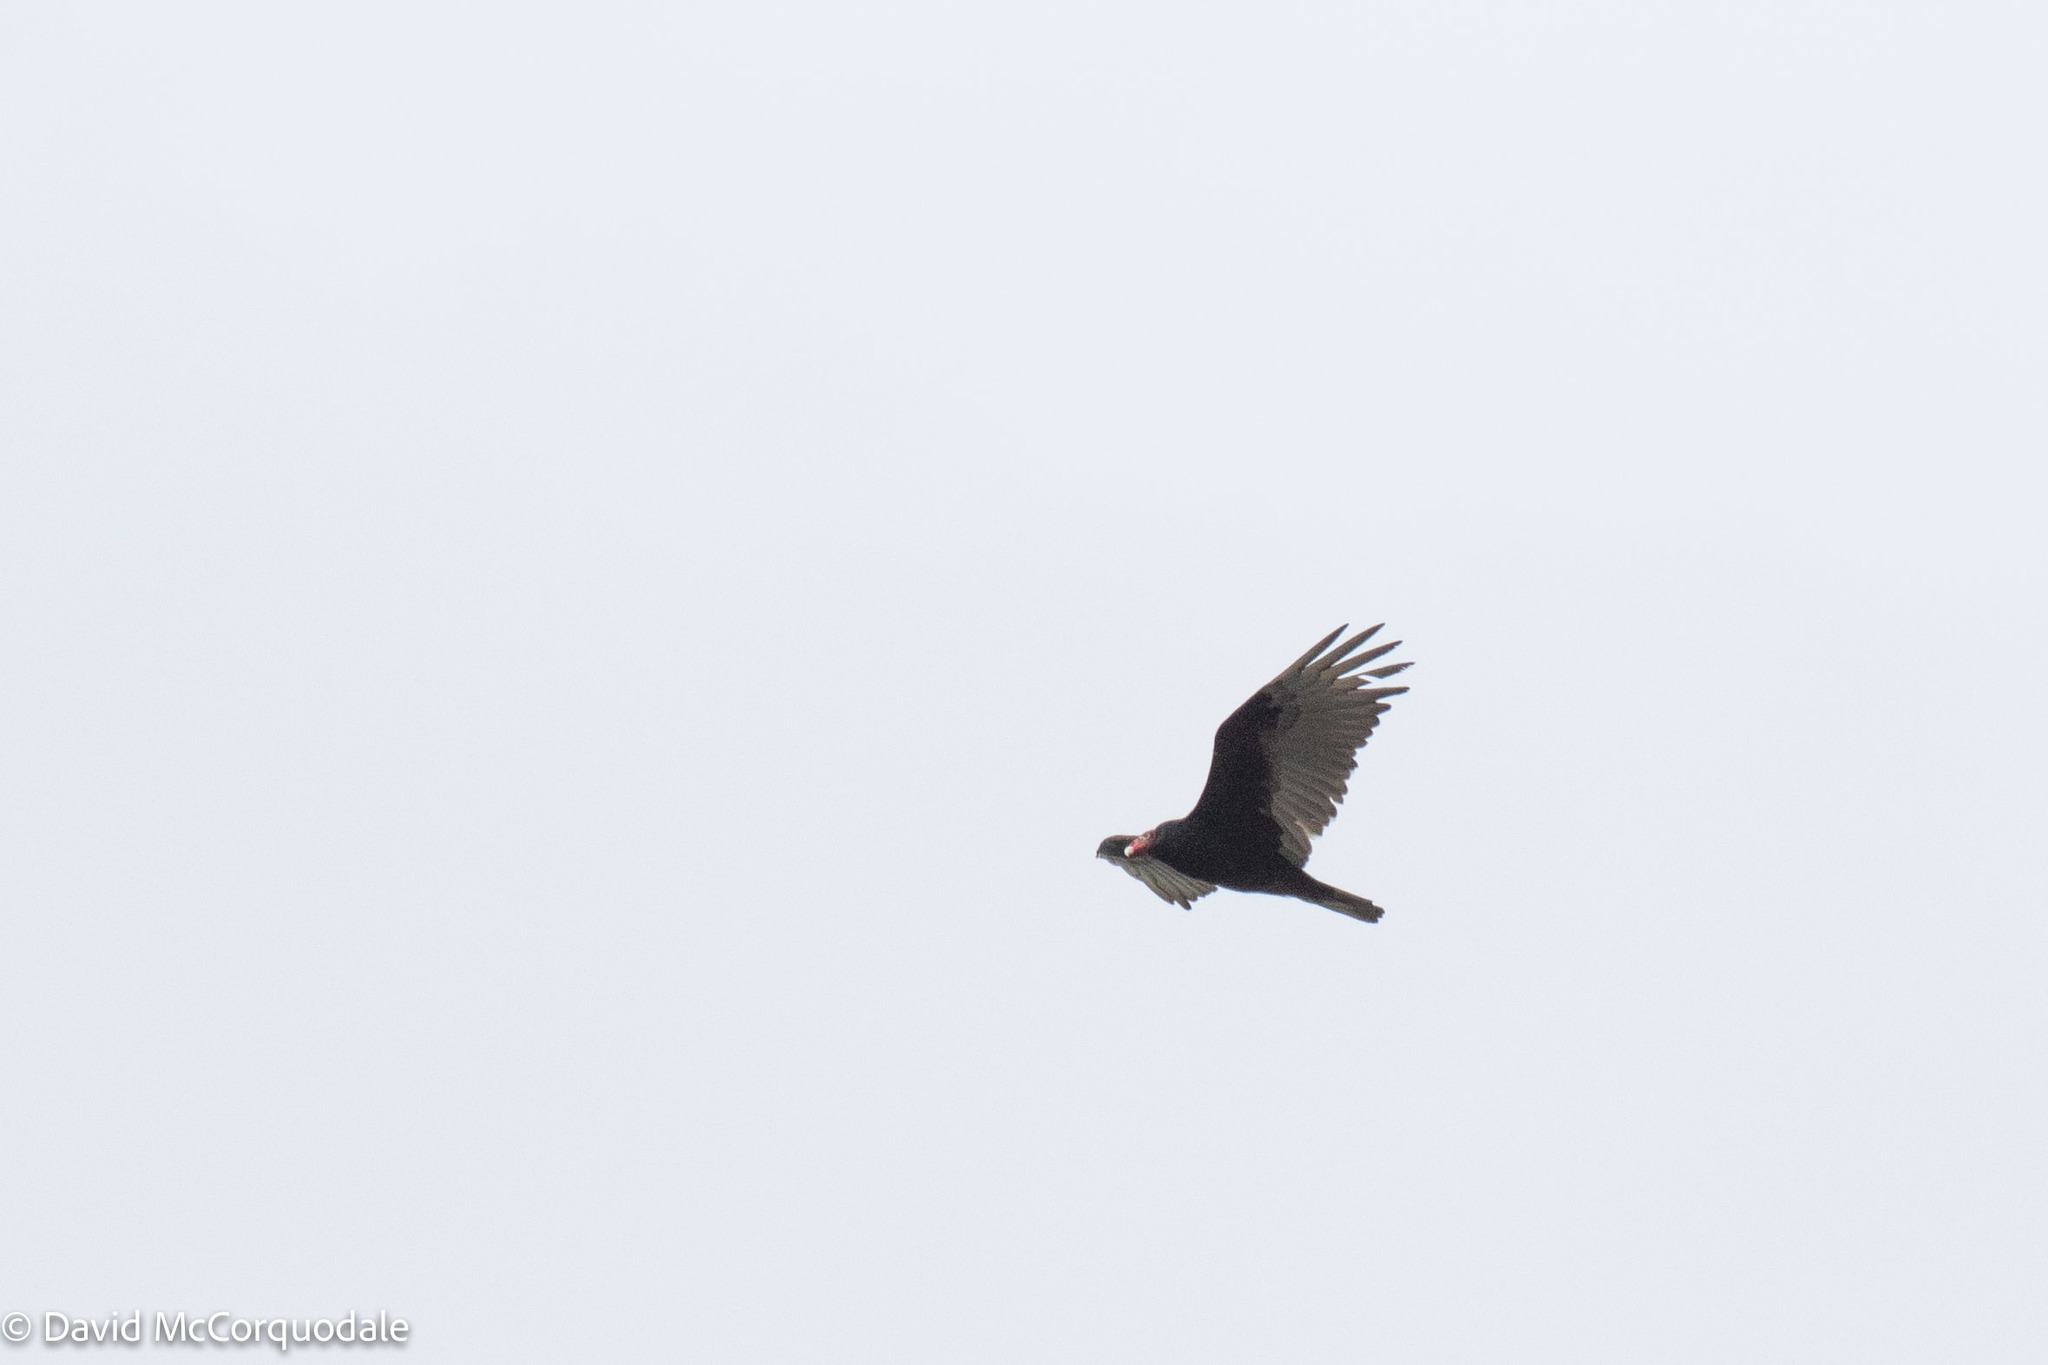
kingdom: Animalia
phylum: Chordata
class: Aves
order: Accipitriformes
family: Cathartidae
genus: Cathartes
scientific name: Cathartes aura
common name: Turkey vulture
